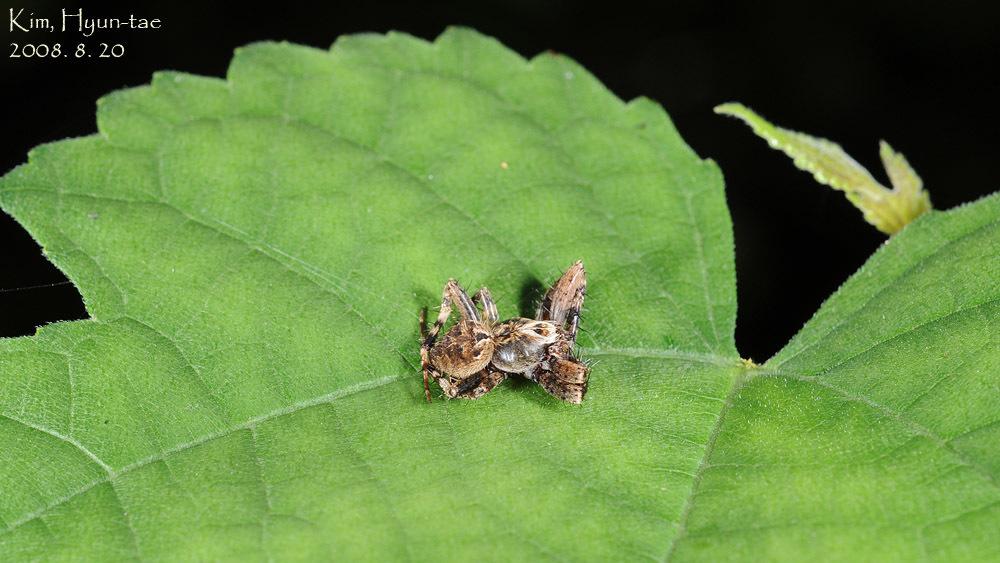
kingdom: Animalia
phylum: Arthropoda
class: Arachnida
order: Araneae
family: Araneidae
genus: Neoscona
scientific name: Neoscona punctigera
